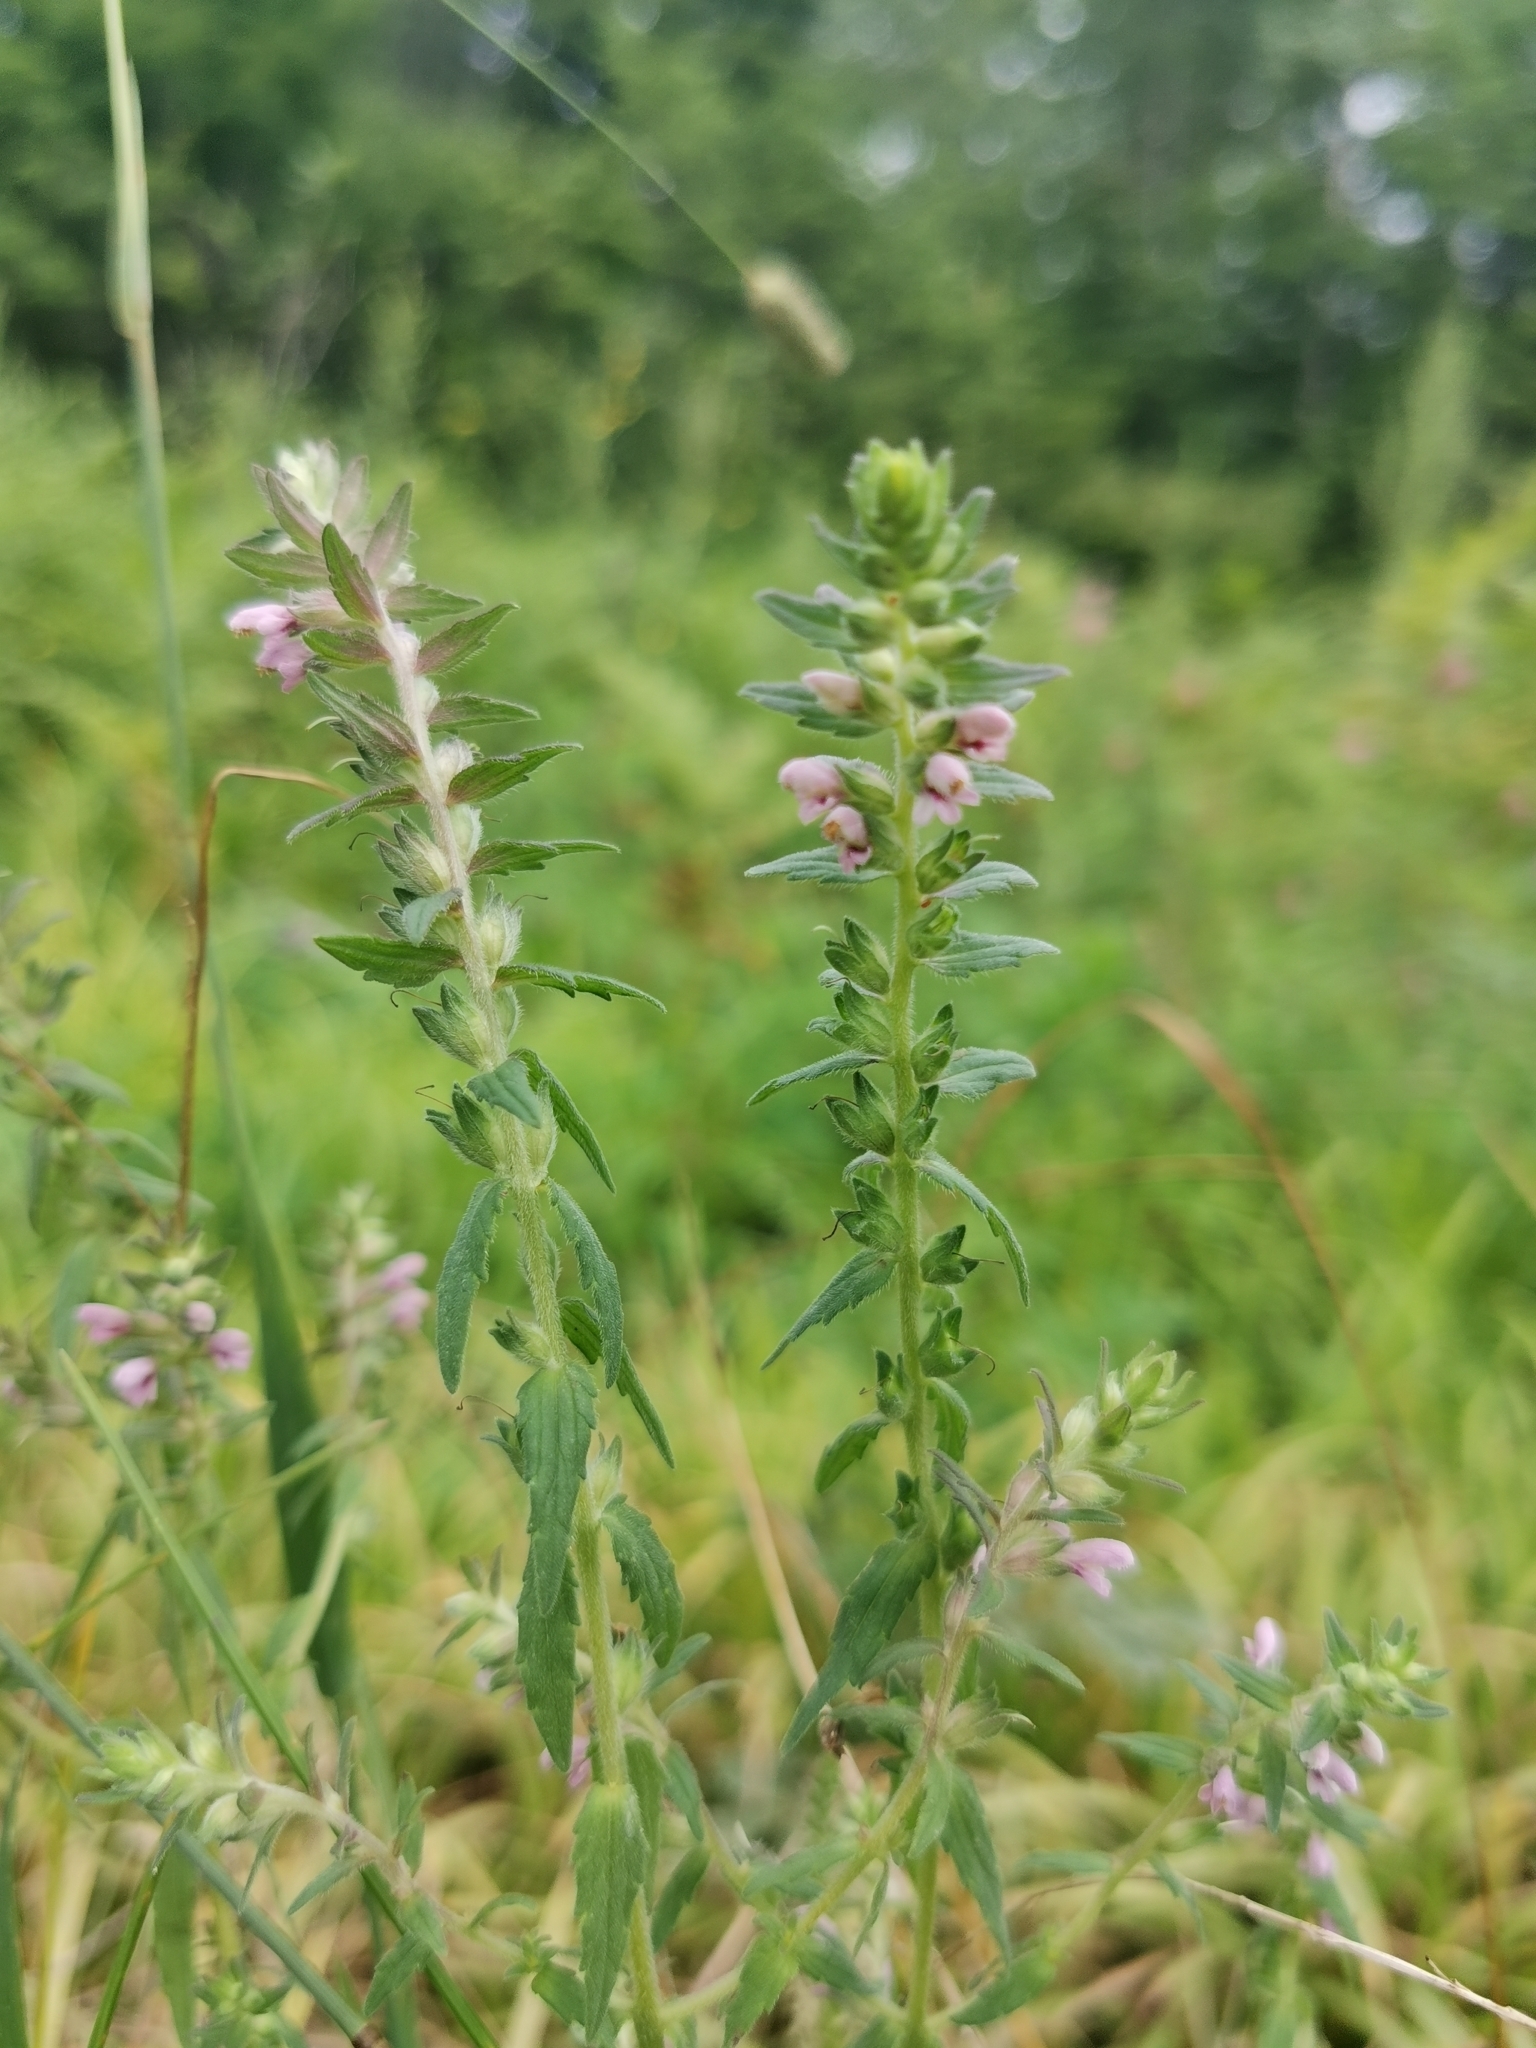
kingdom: Plantae
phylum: Tracheophyta
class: Magnoliopsida
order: Lamiales
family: Orobanchaceae
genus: Odontites
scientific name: Odontites vulgaris
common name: Broomrape
